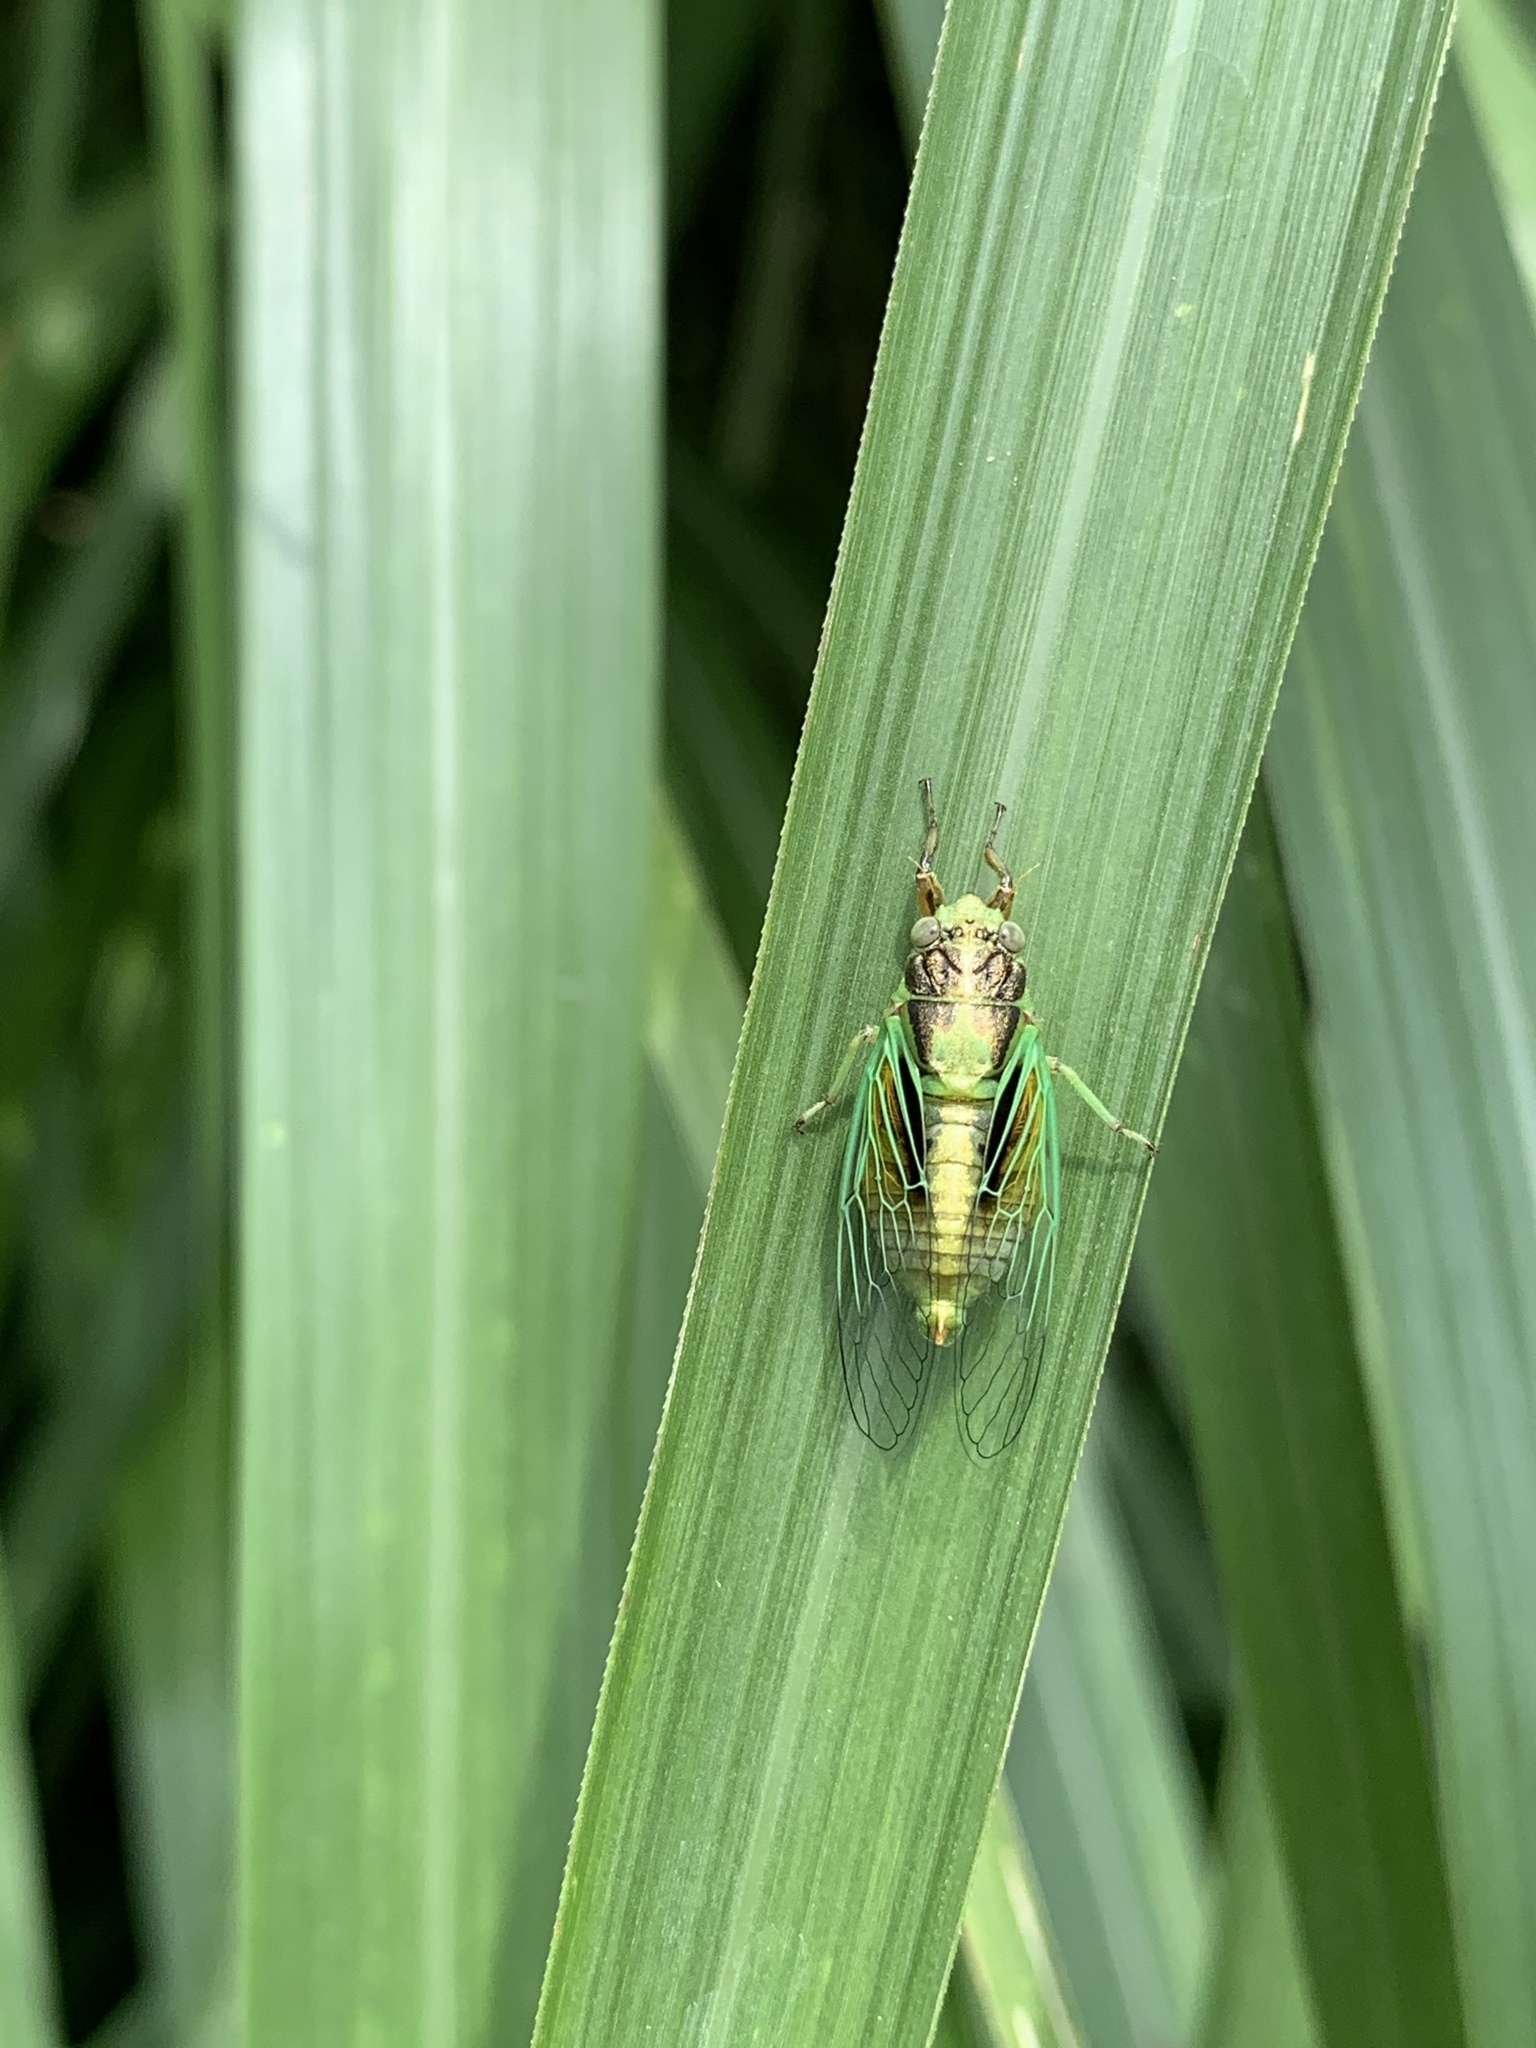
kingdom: Animalia
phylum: Arthropoda
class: Insecta
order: Hemiptera
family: Cicadidae
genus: Mogannia
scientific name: Mogannia hebes
